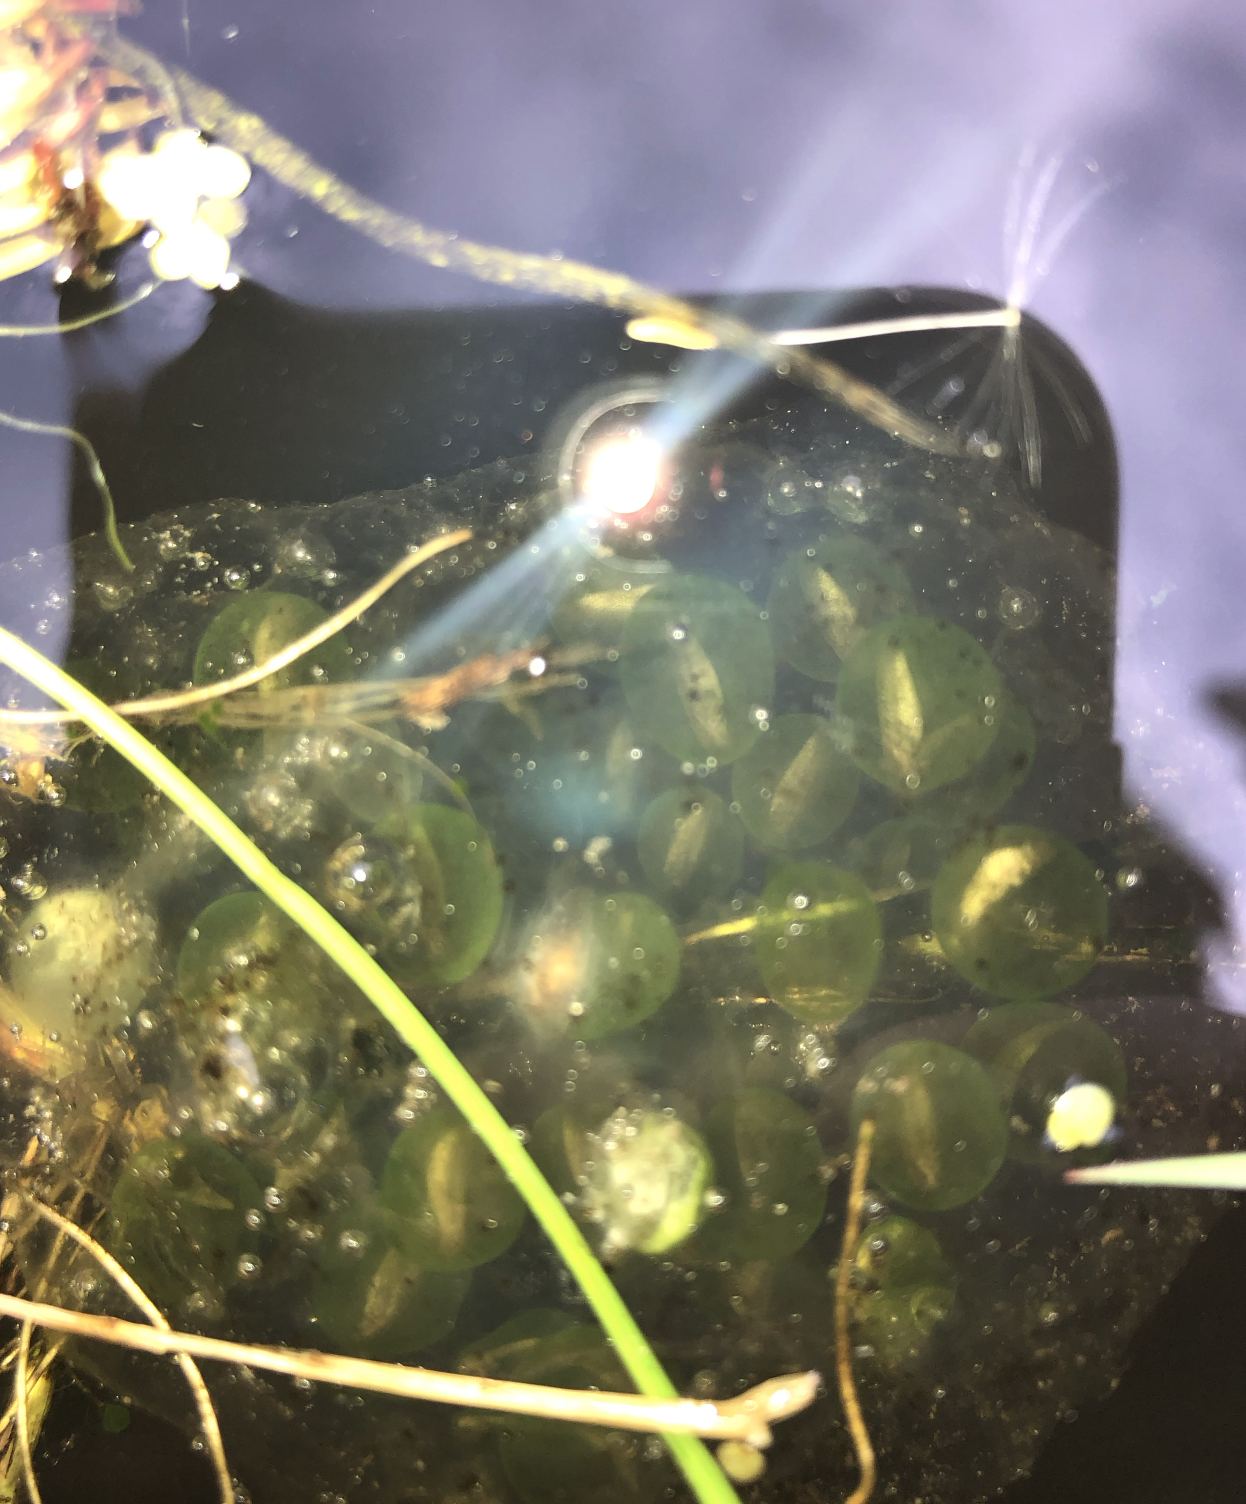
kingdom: Animalia
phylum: Chordata
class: Amphibia
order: Anura
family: Ranidae
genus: Lithobates
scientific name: Lithobates catesbeianus
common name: American bullfrog
